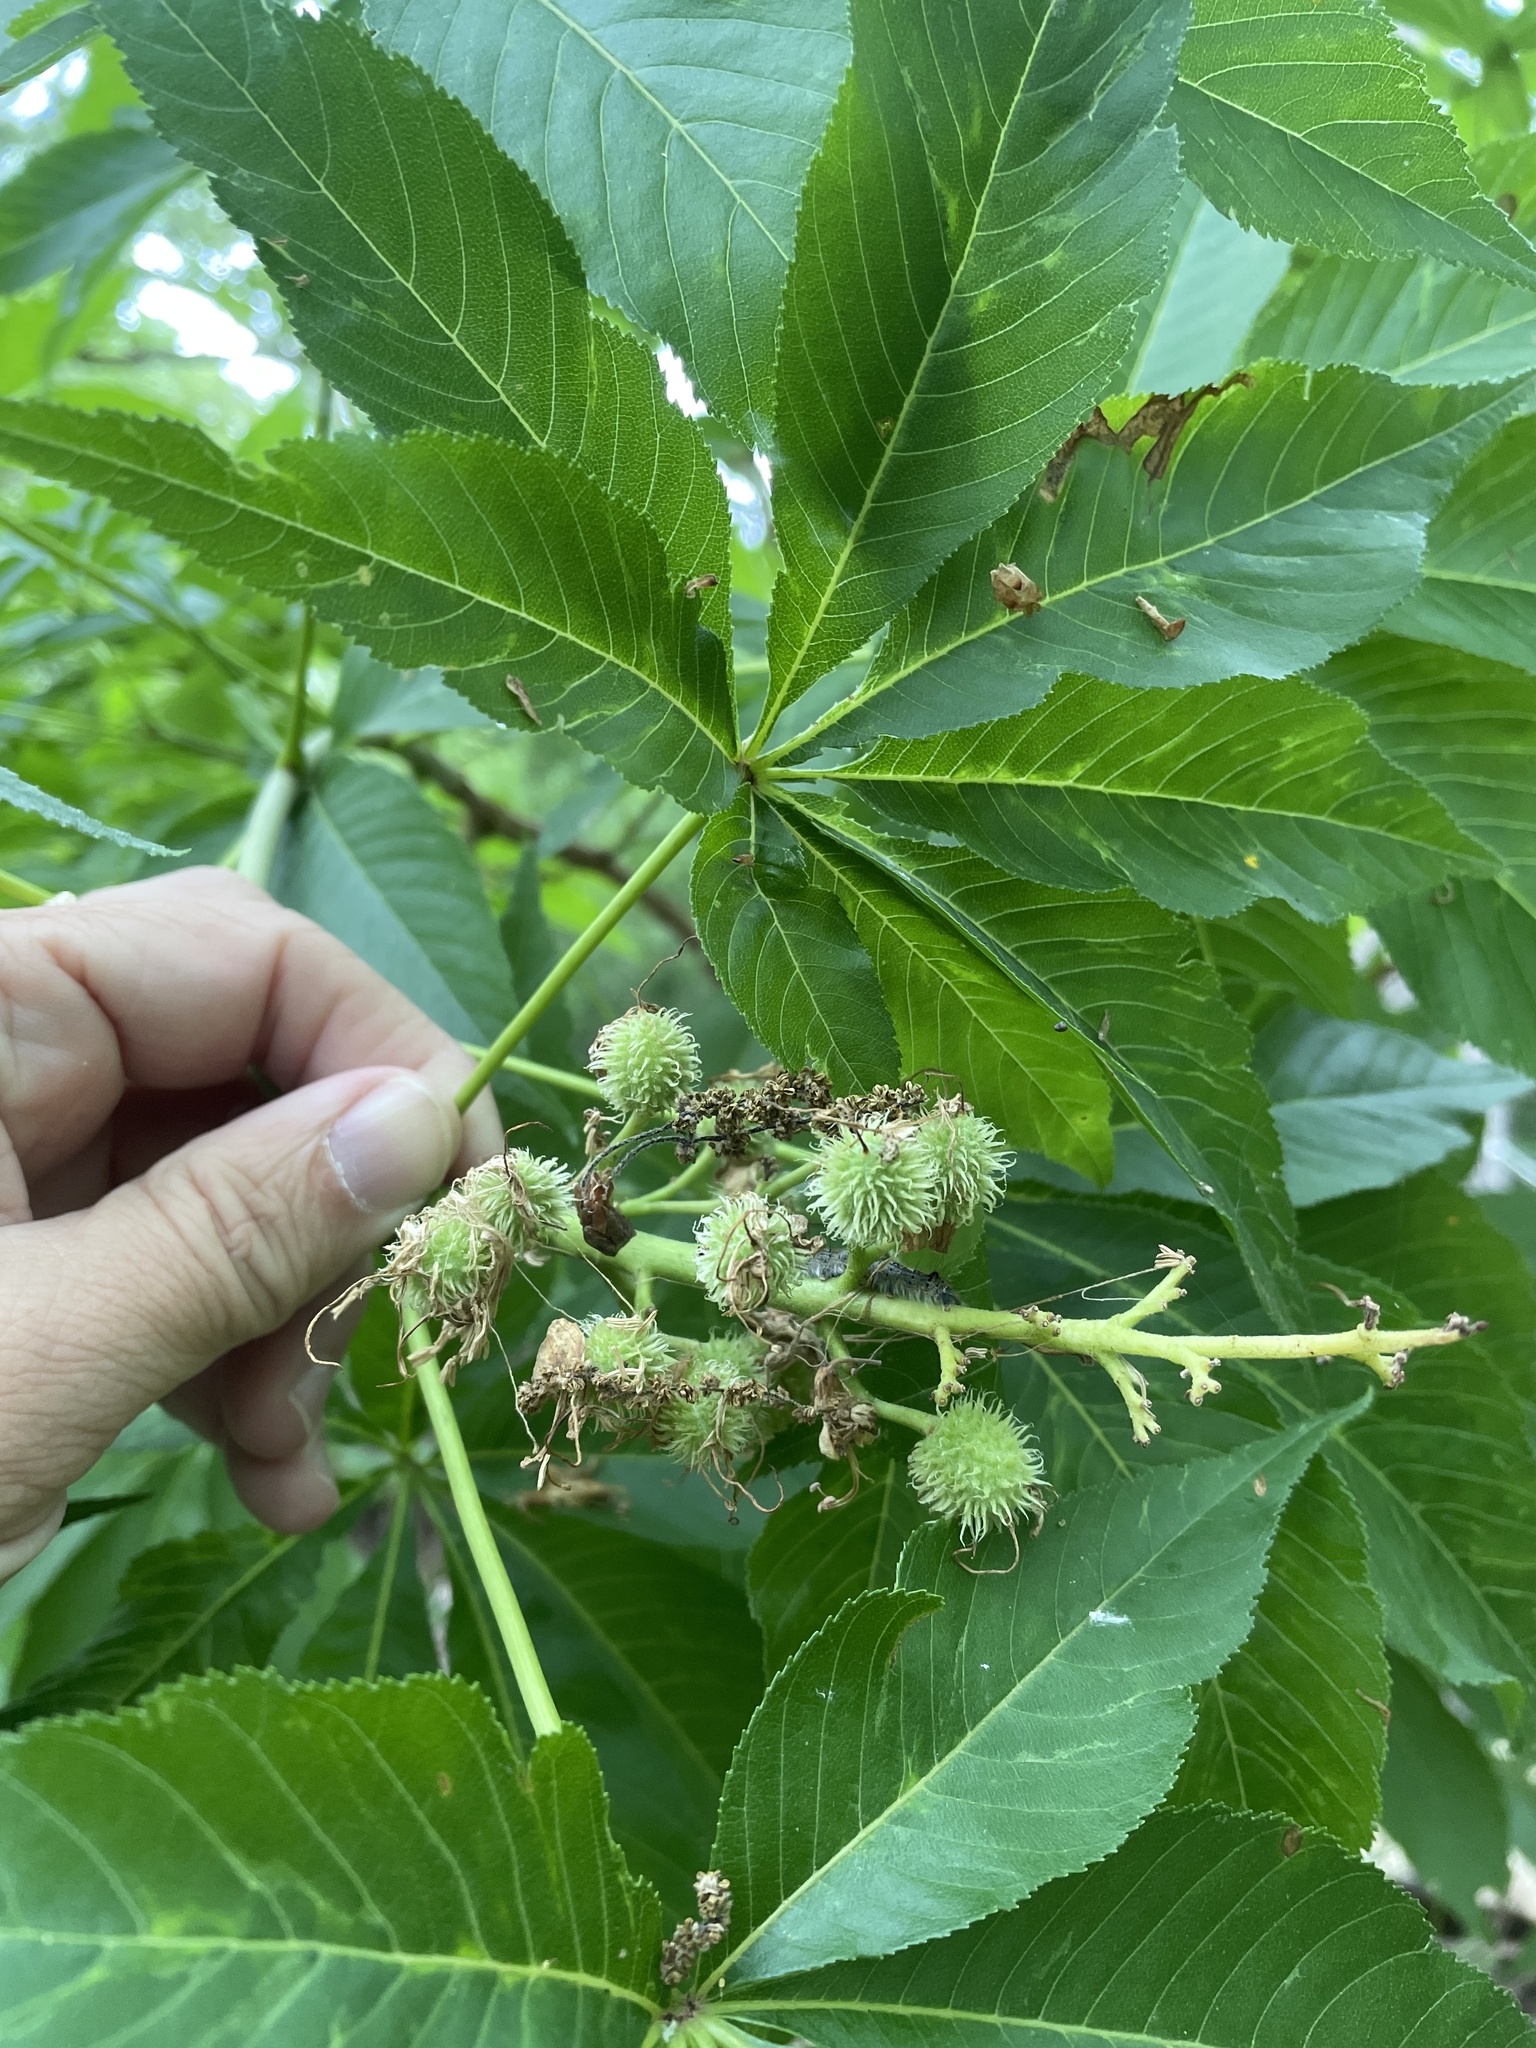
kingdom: Plantae
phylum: Tracheophyta
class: Magnoliopsida
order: Sapindales
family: Sapindaceae
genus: Aesculus
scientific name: Aesculus glabra
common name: Ohio buckeye
